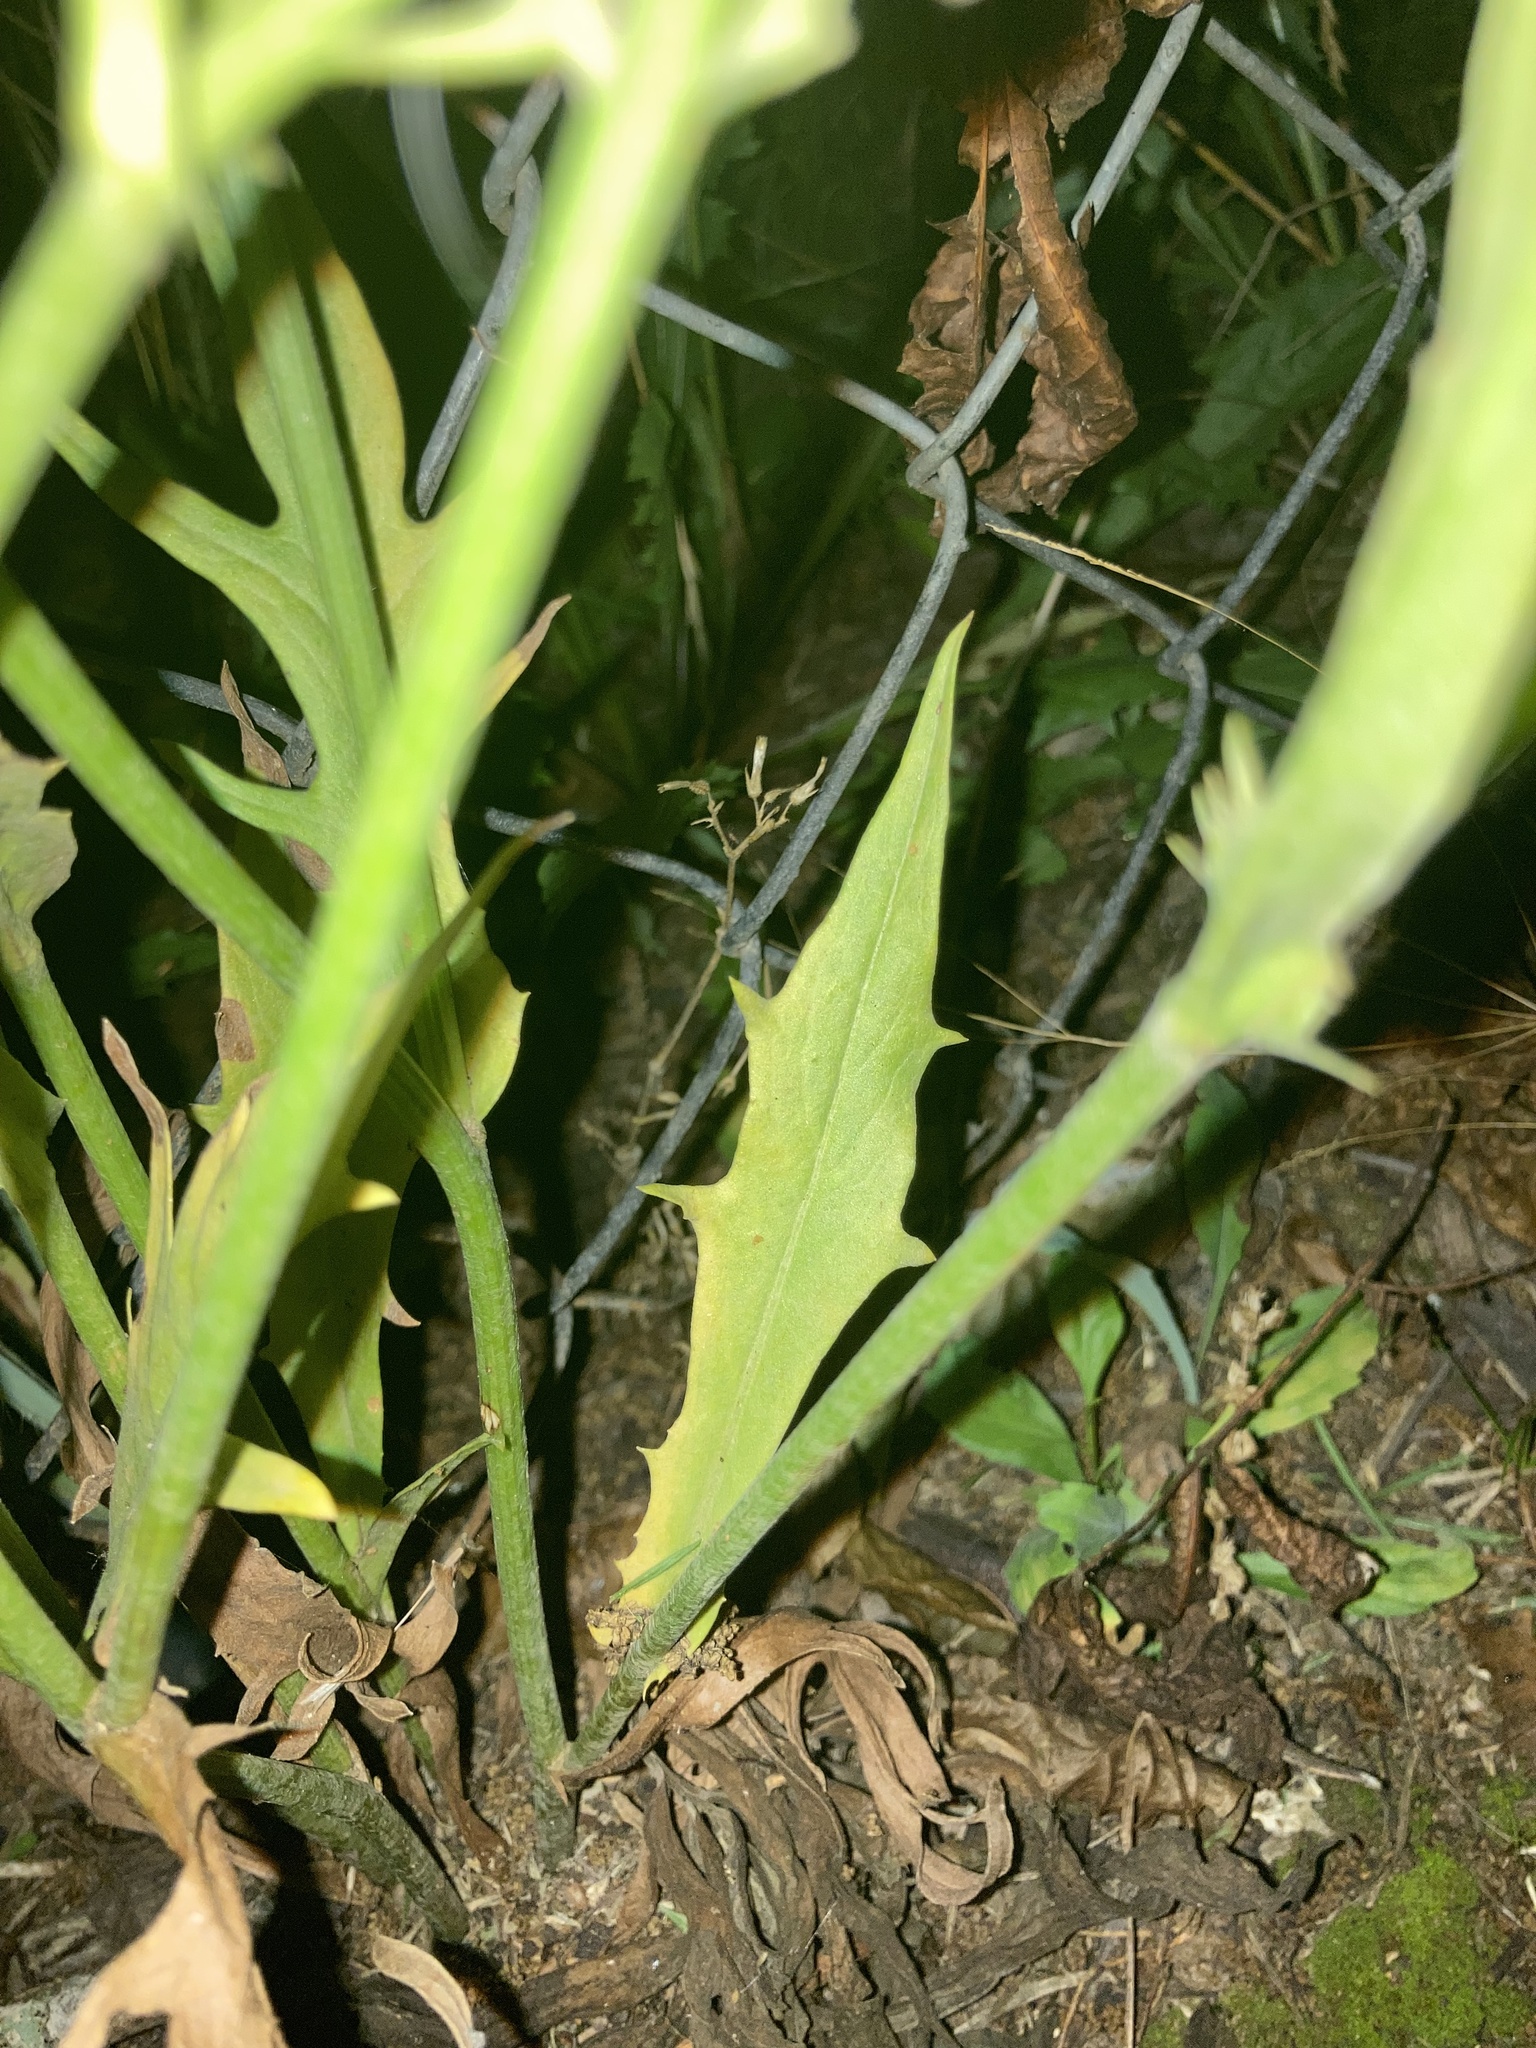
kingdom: Plantae
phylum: Tracheophyta
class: Magnoliopsida
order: Asterales
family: Asteraceae
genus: Pyrrhopappus
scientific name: Pyrrhopappus carolinianus
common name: Carolina desert-chicory
